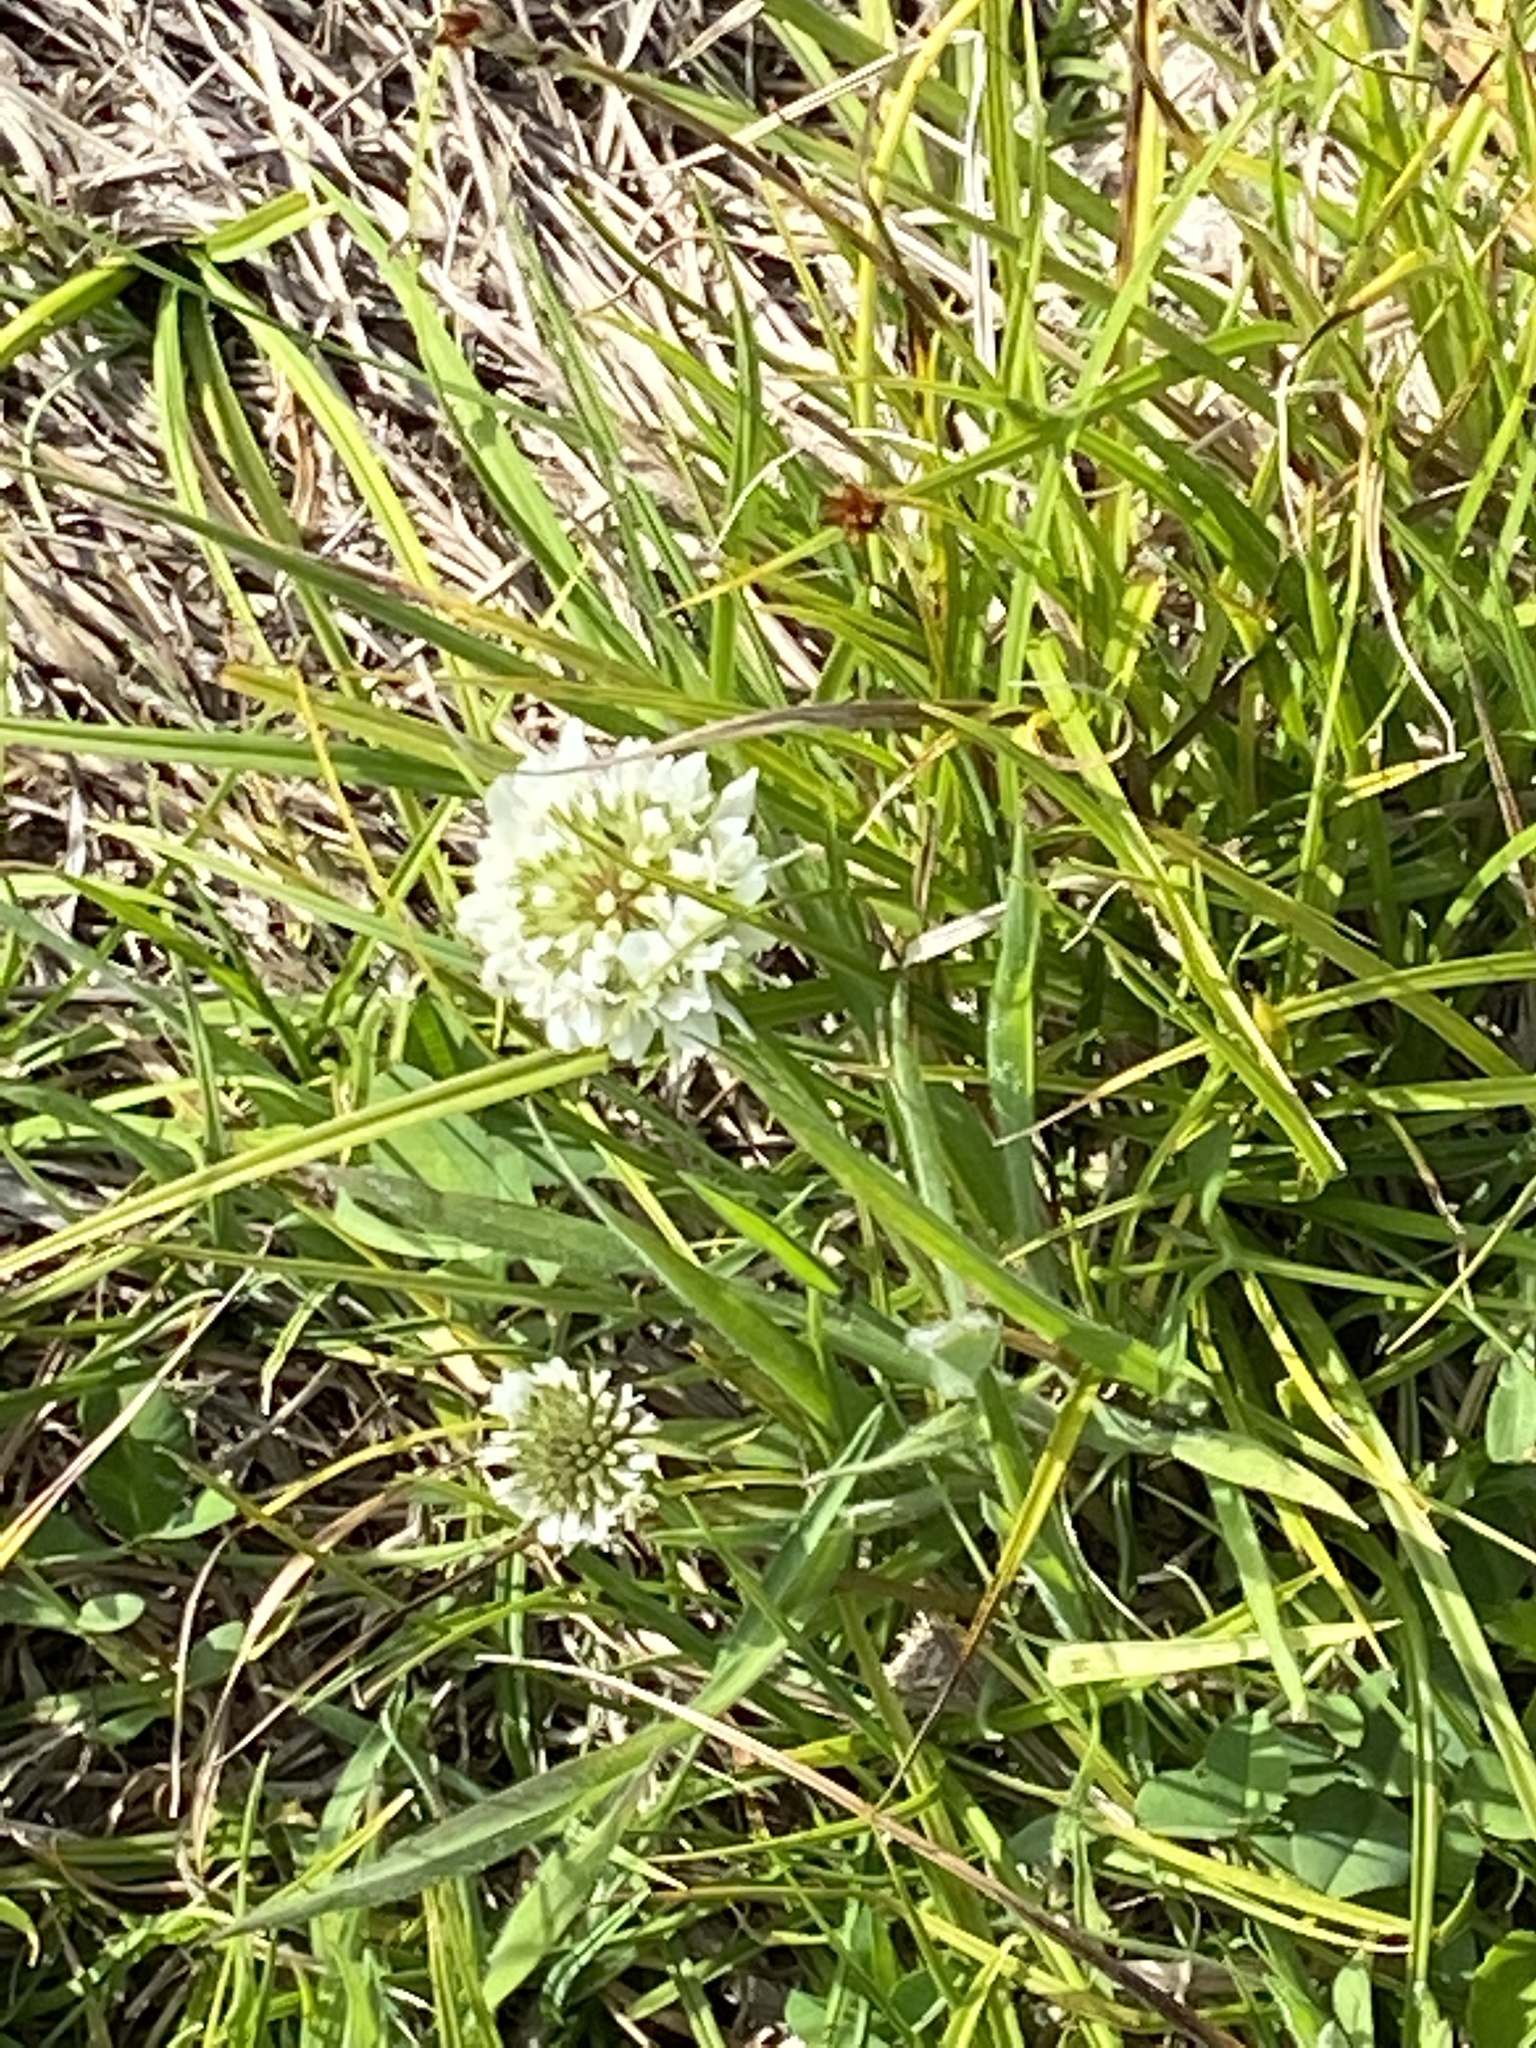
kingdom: Plantae
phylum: Tracheophyta
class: Magnoliopsida
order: Fabales
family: Fabaceae
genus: Trifolium
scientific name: Trifolium repens
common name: White clover
